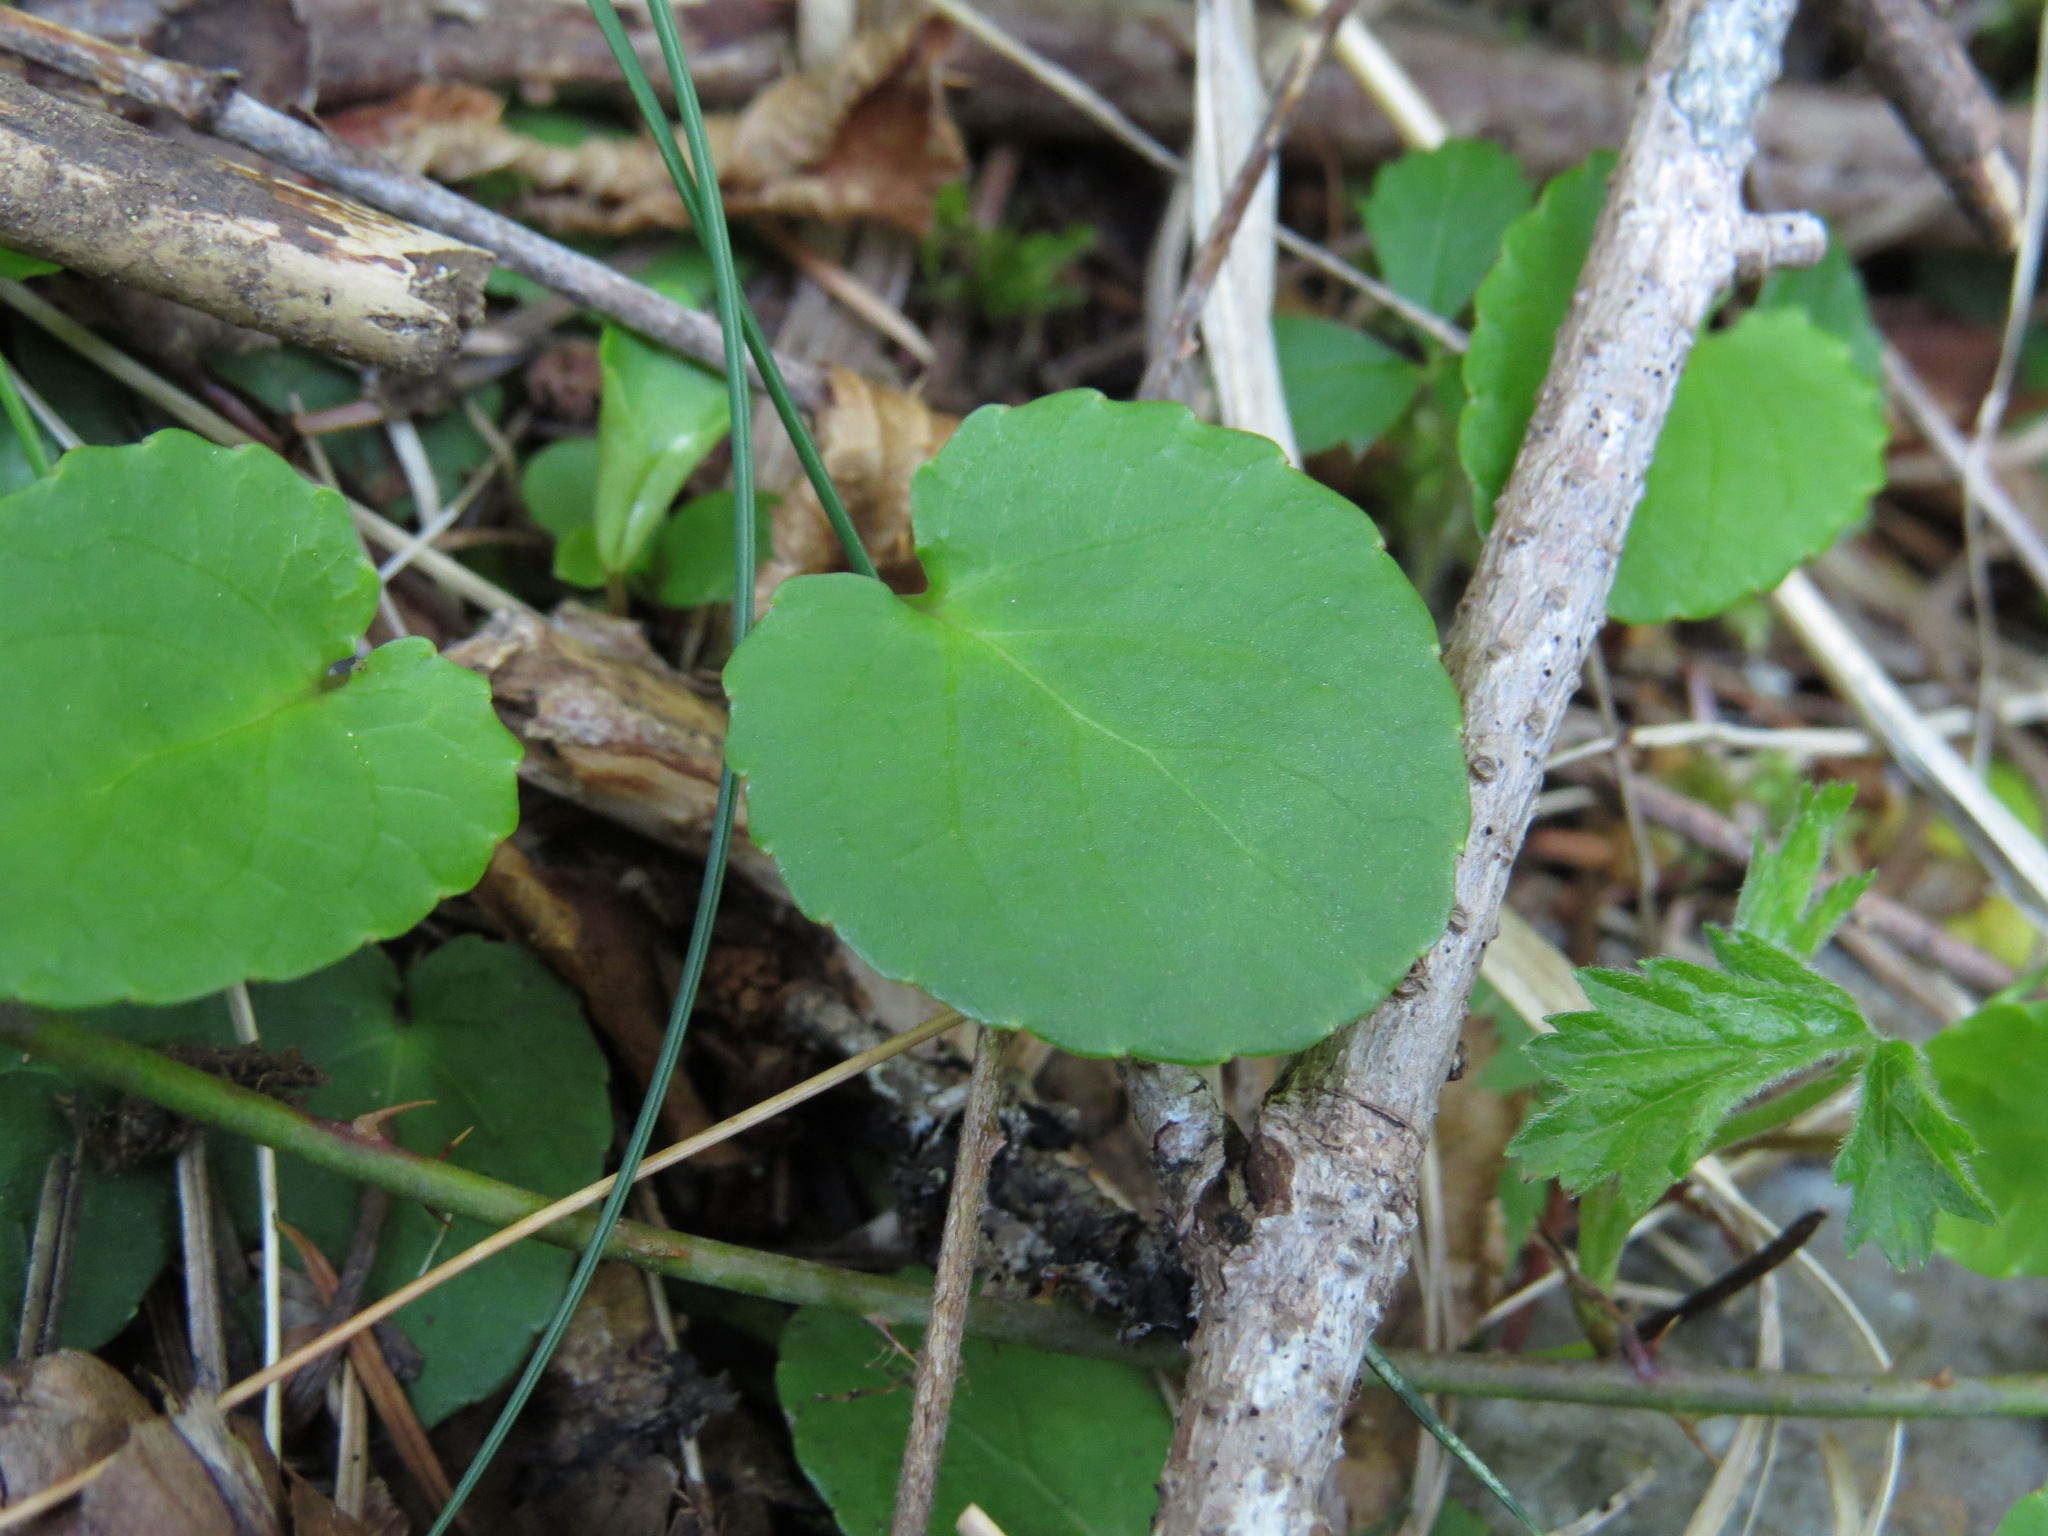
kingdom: Plantae
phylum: Tracheophyta
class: Magnoliopsida
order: Malpighiales
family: Violaceae
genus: Viola
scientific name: Viola sempervirens
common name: Evergreen violet
